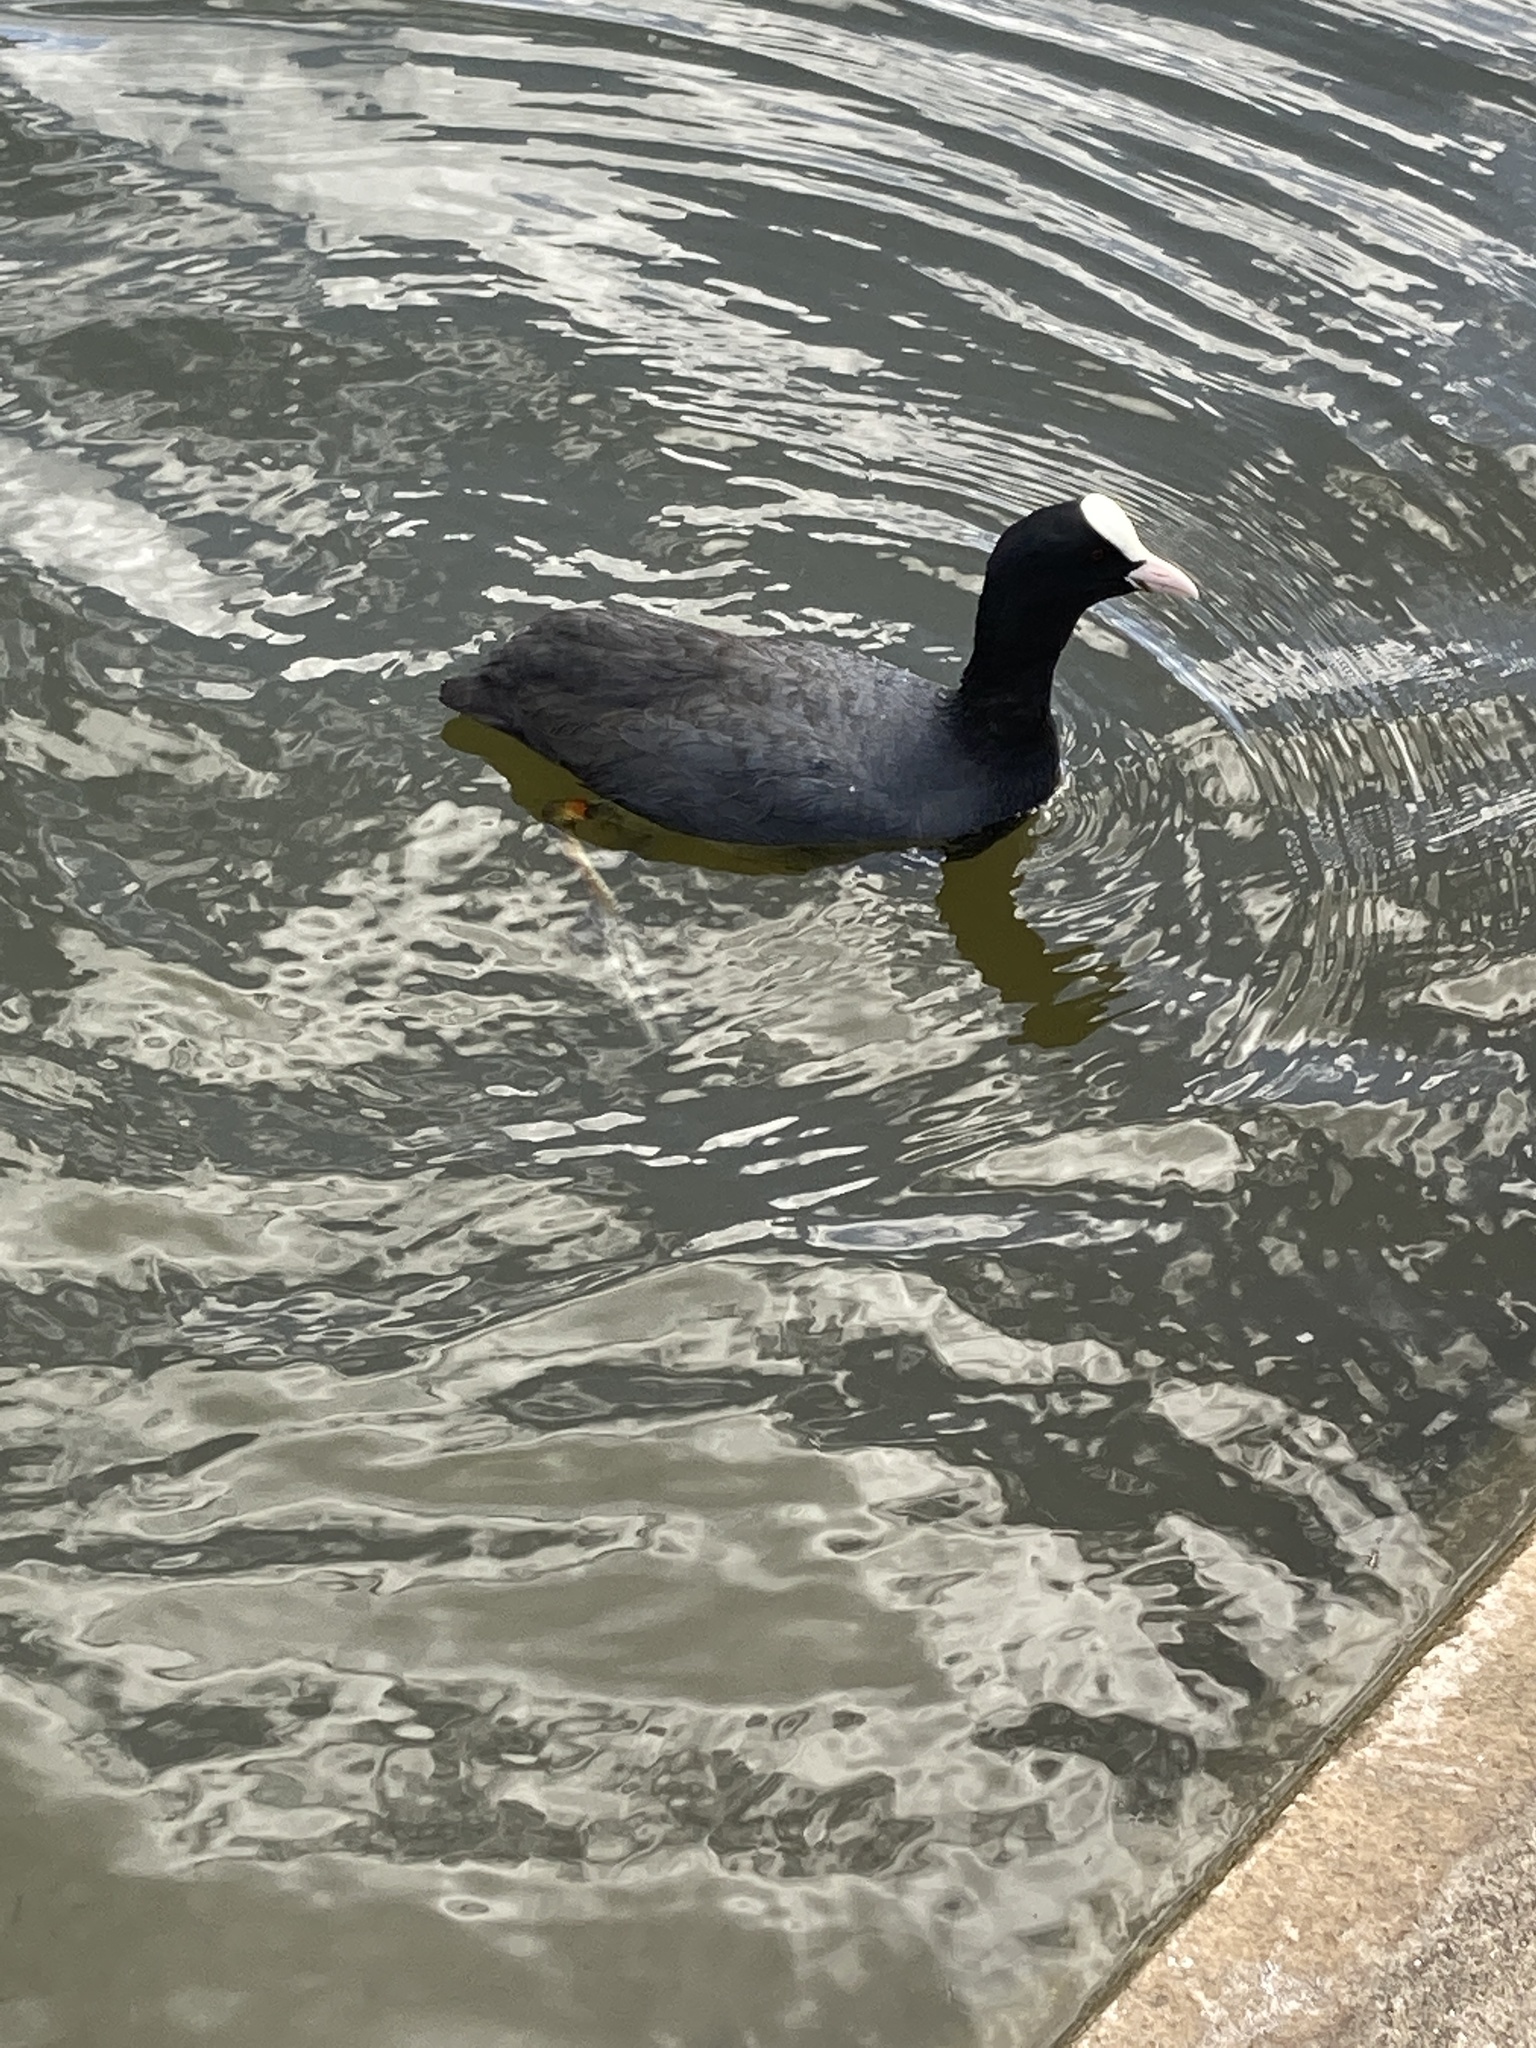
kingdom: Animalia
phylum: Chordata
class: Aves
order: Gruiformes
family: Rallidae
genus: Fulica
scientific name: Fulica atra
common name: Eurasian coot
